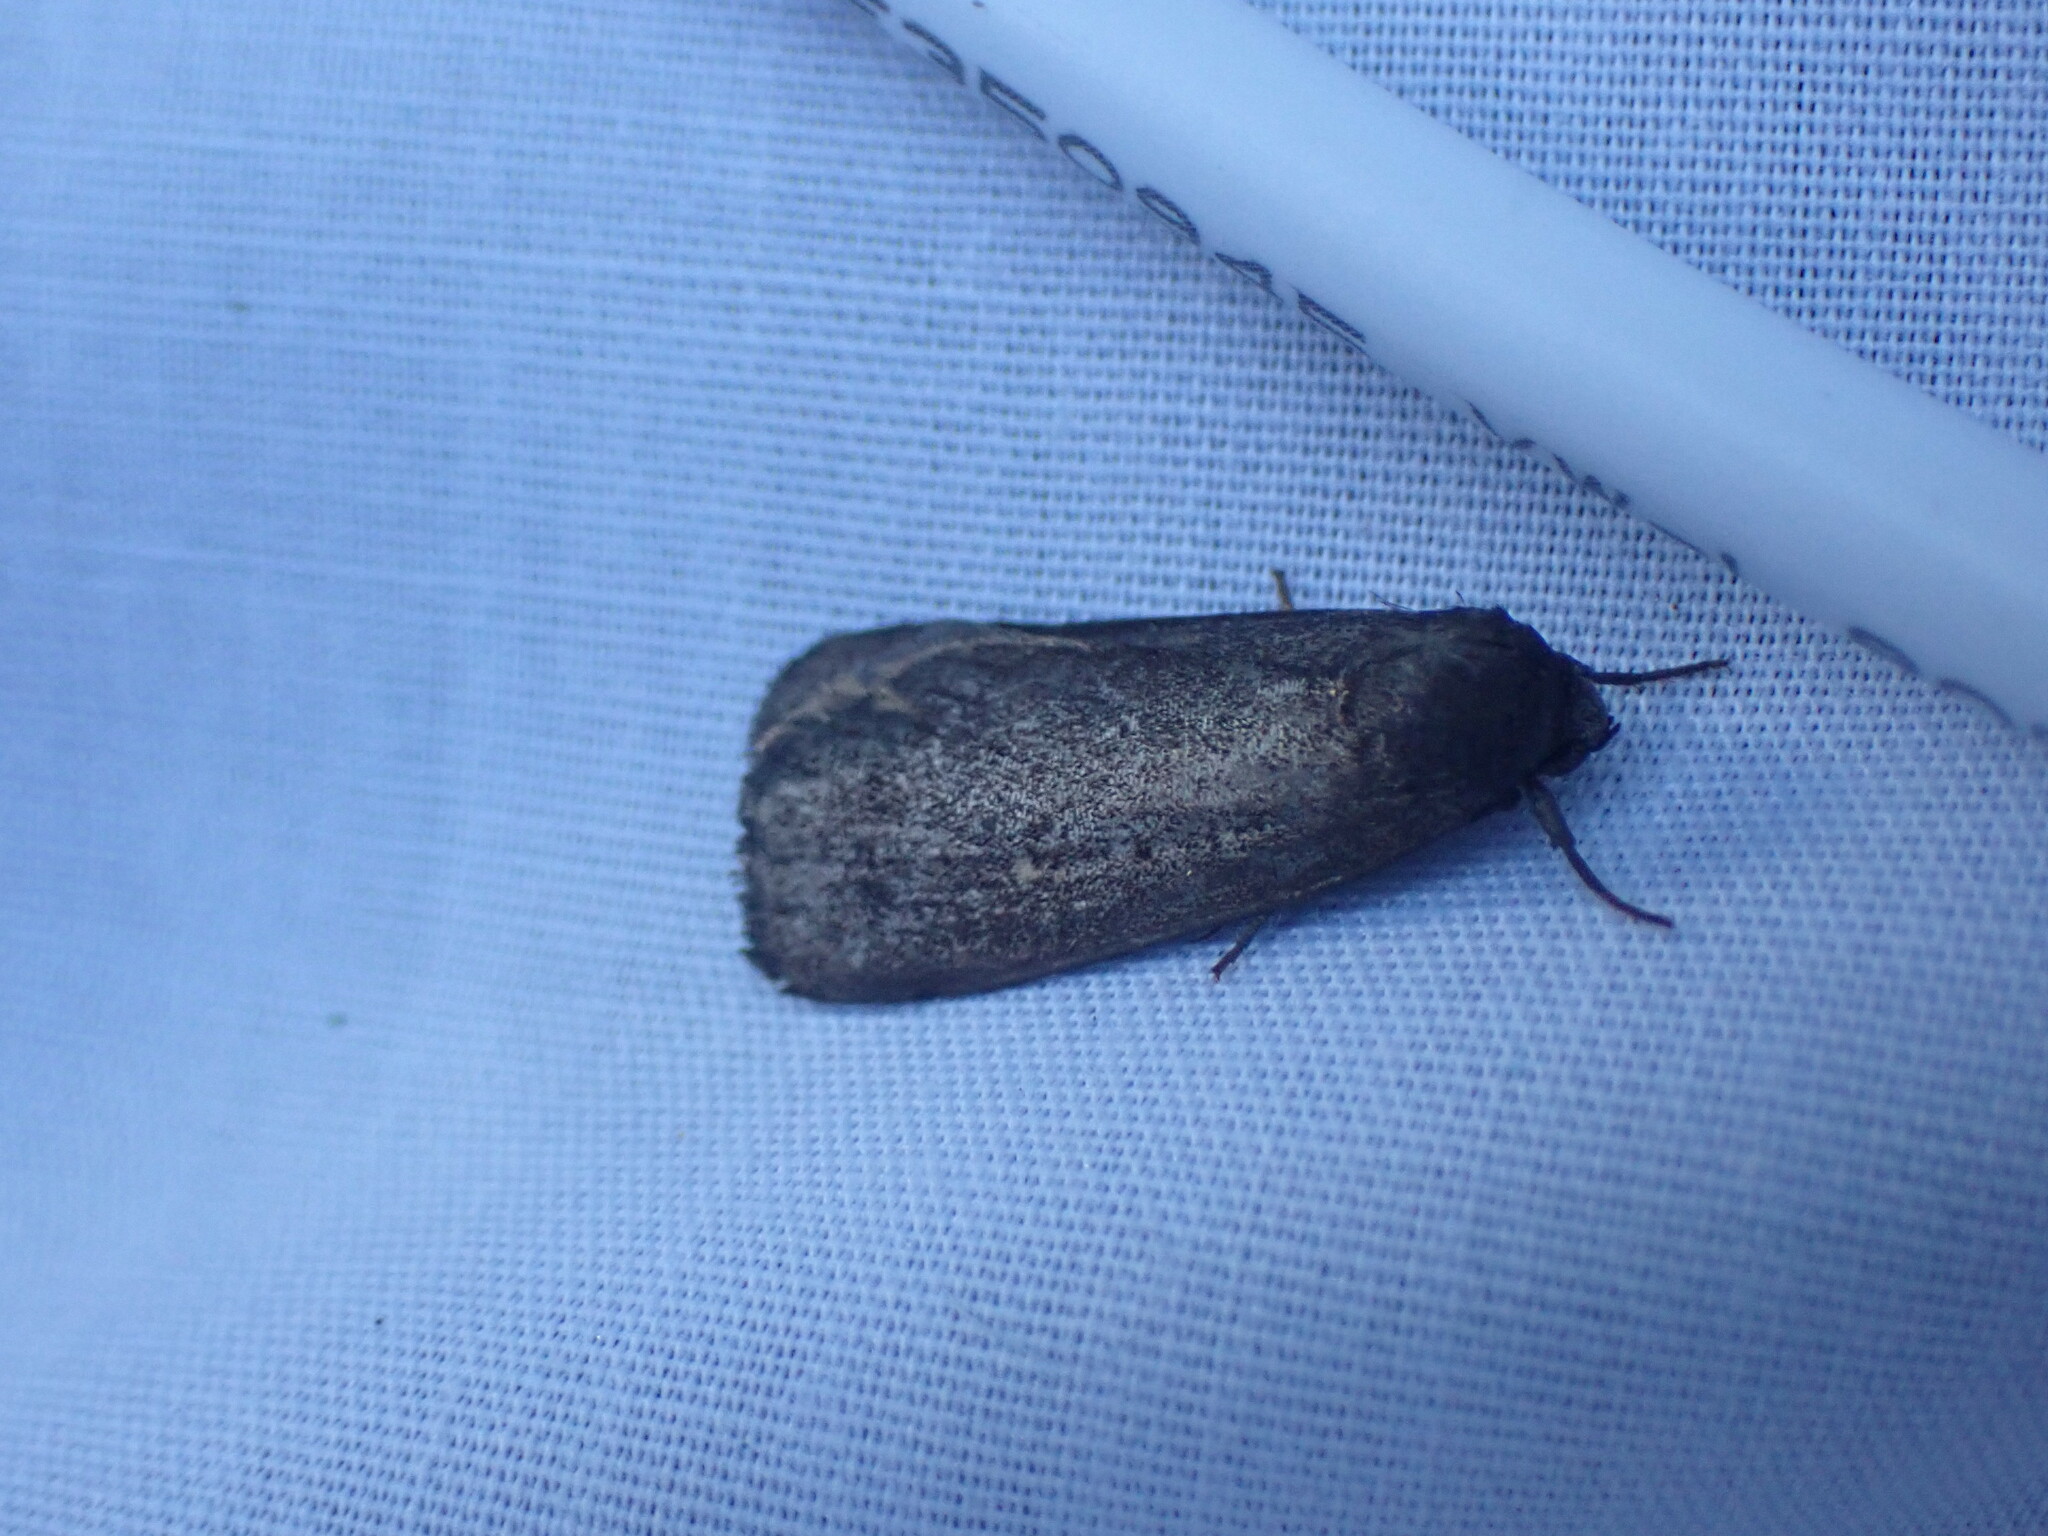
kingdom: Animalia
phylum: Arthropoda
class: Insecta
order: Lepidoptera
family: Noctuidae
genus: Proxenus
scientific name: Proxenus miranda
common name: Miranda moth
